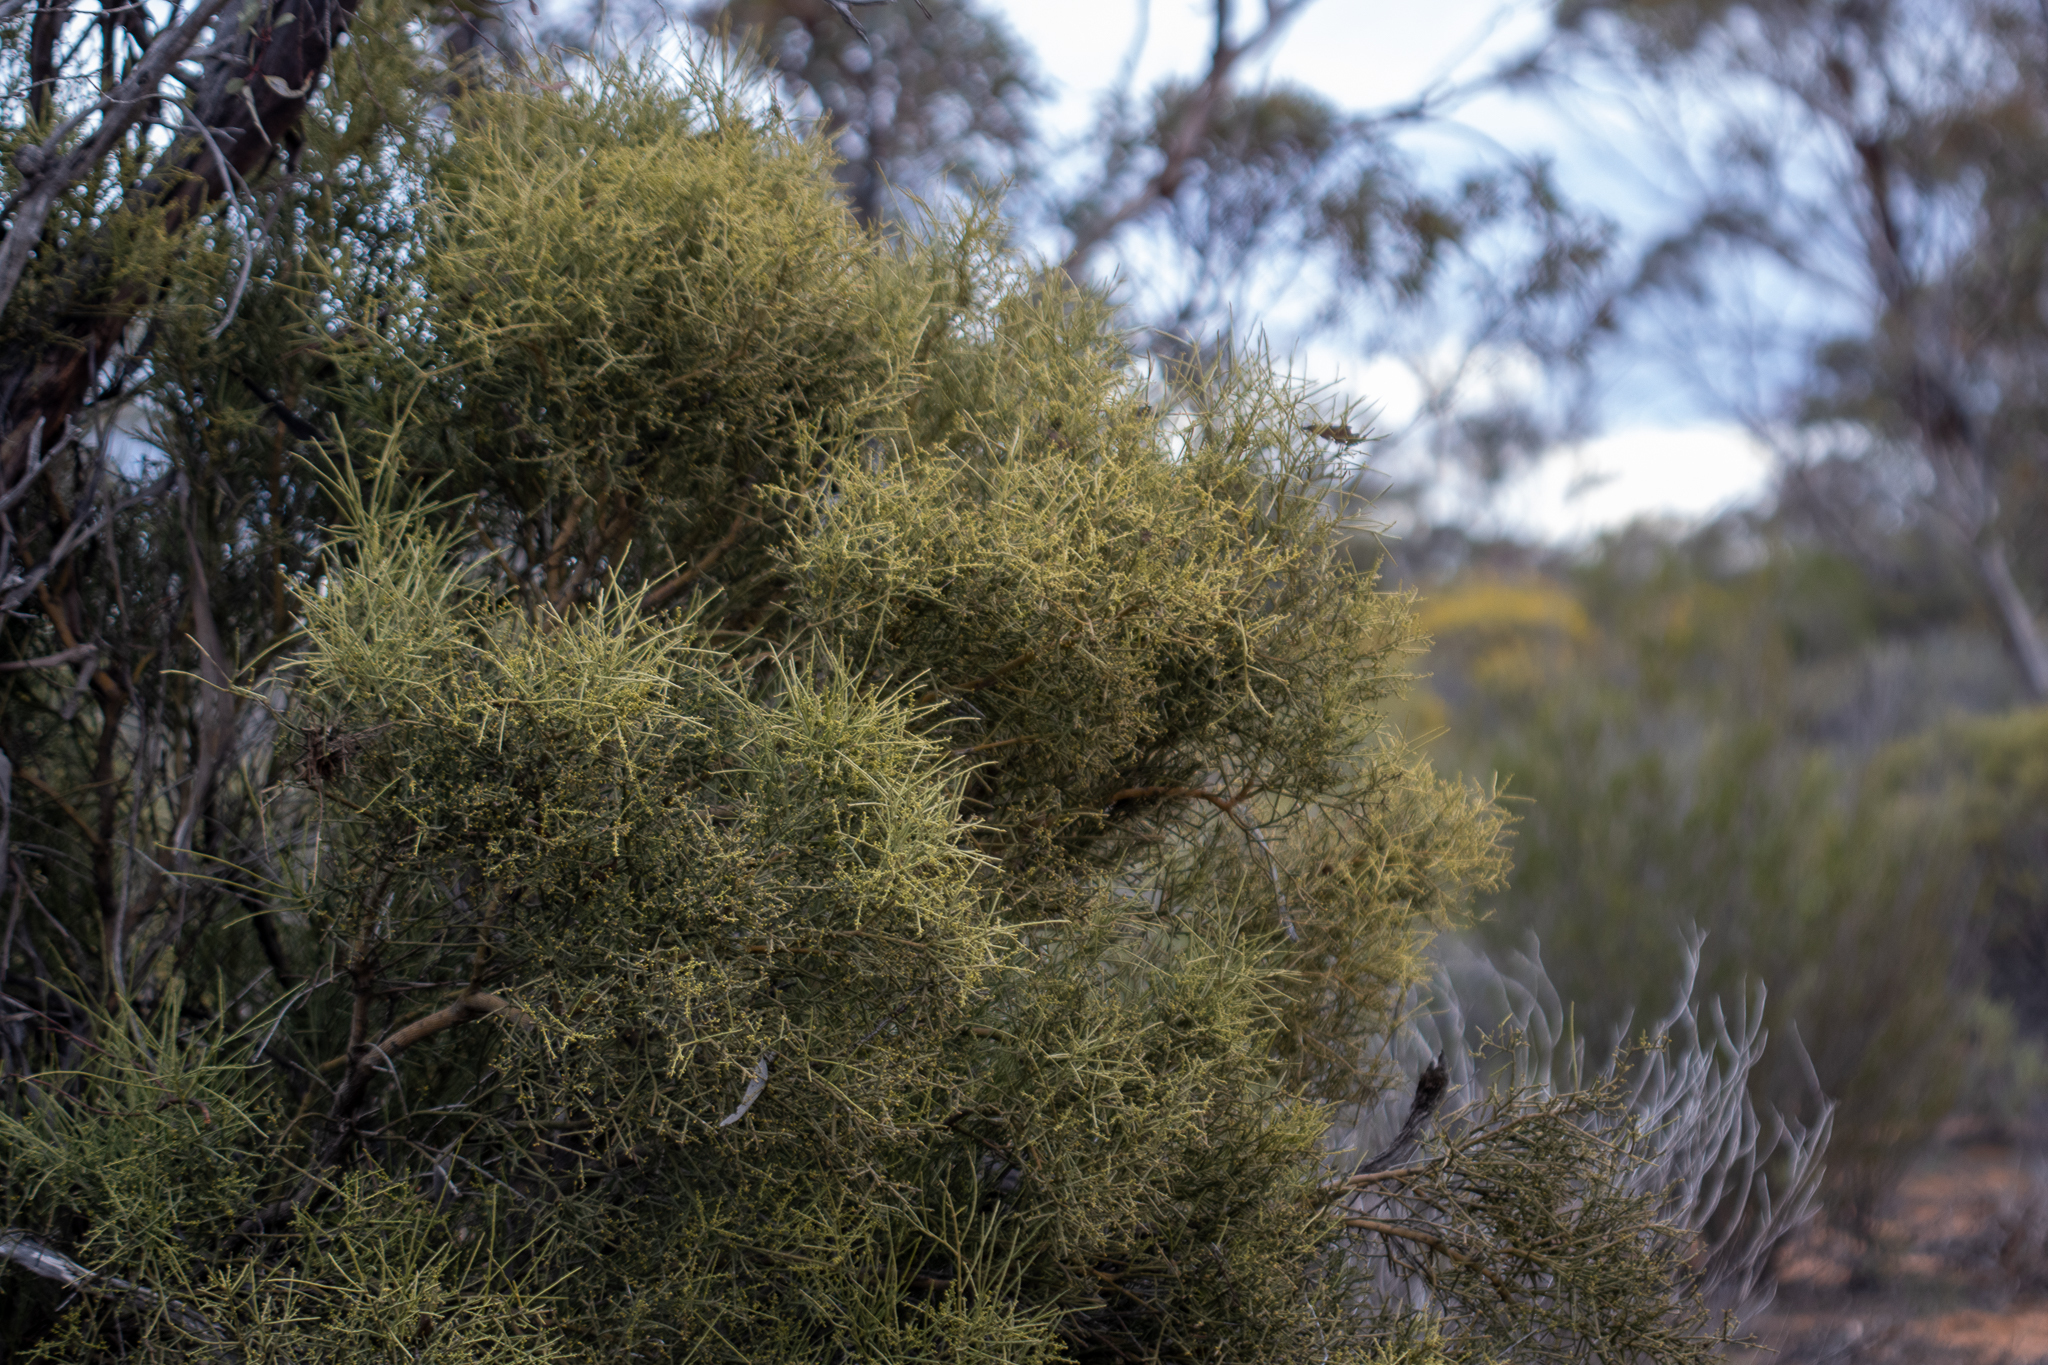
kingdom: Plantae
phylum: Tracheophyta
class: Magnoliopsida
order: Santalales
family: Santalaceae
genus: Exocarpos
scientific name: Exocarpos aphyllus
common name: Leafless ballart
